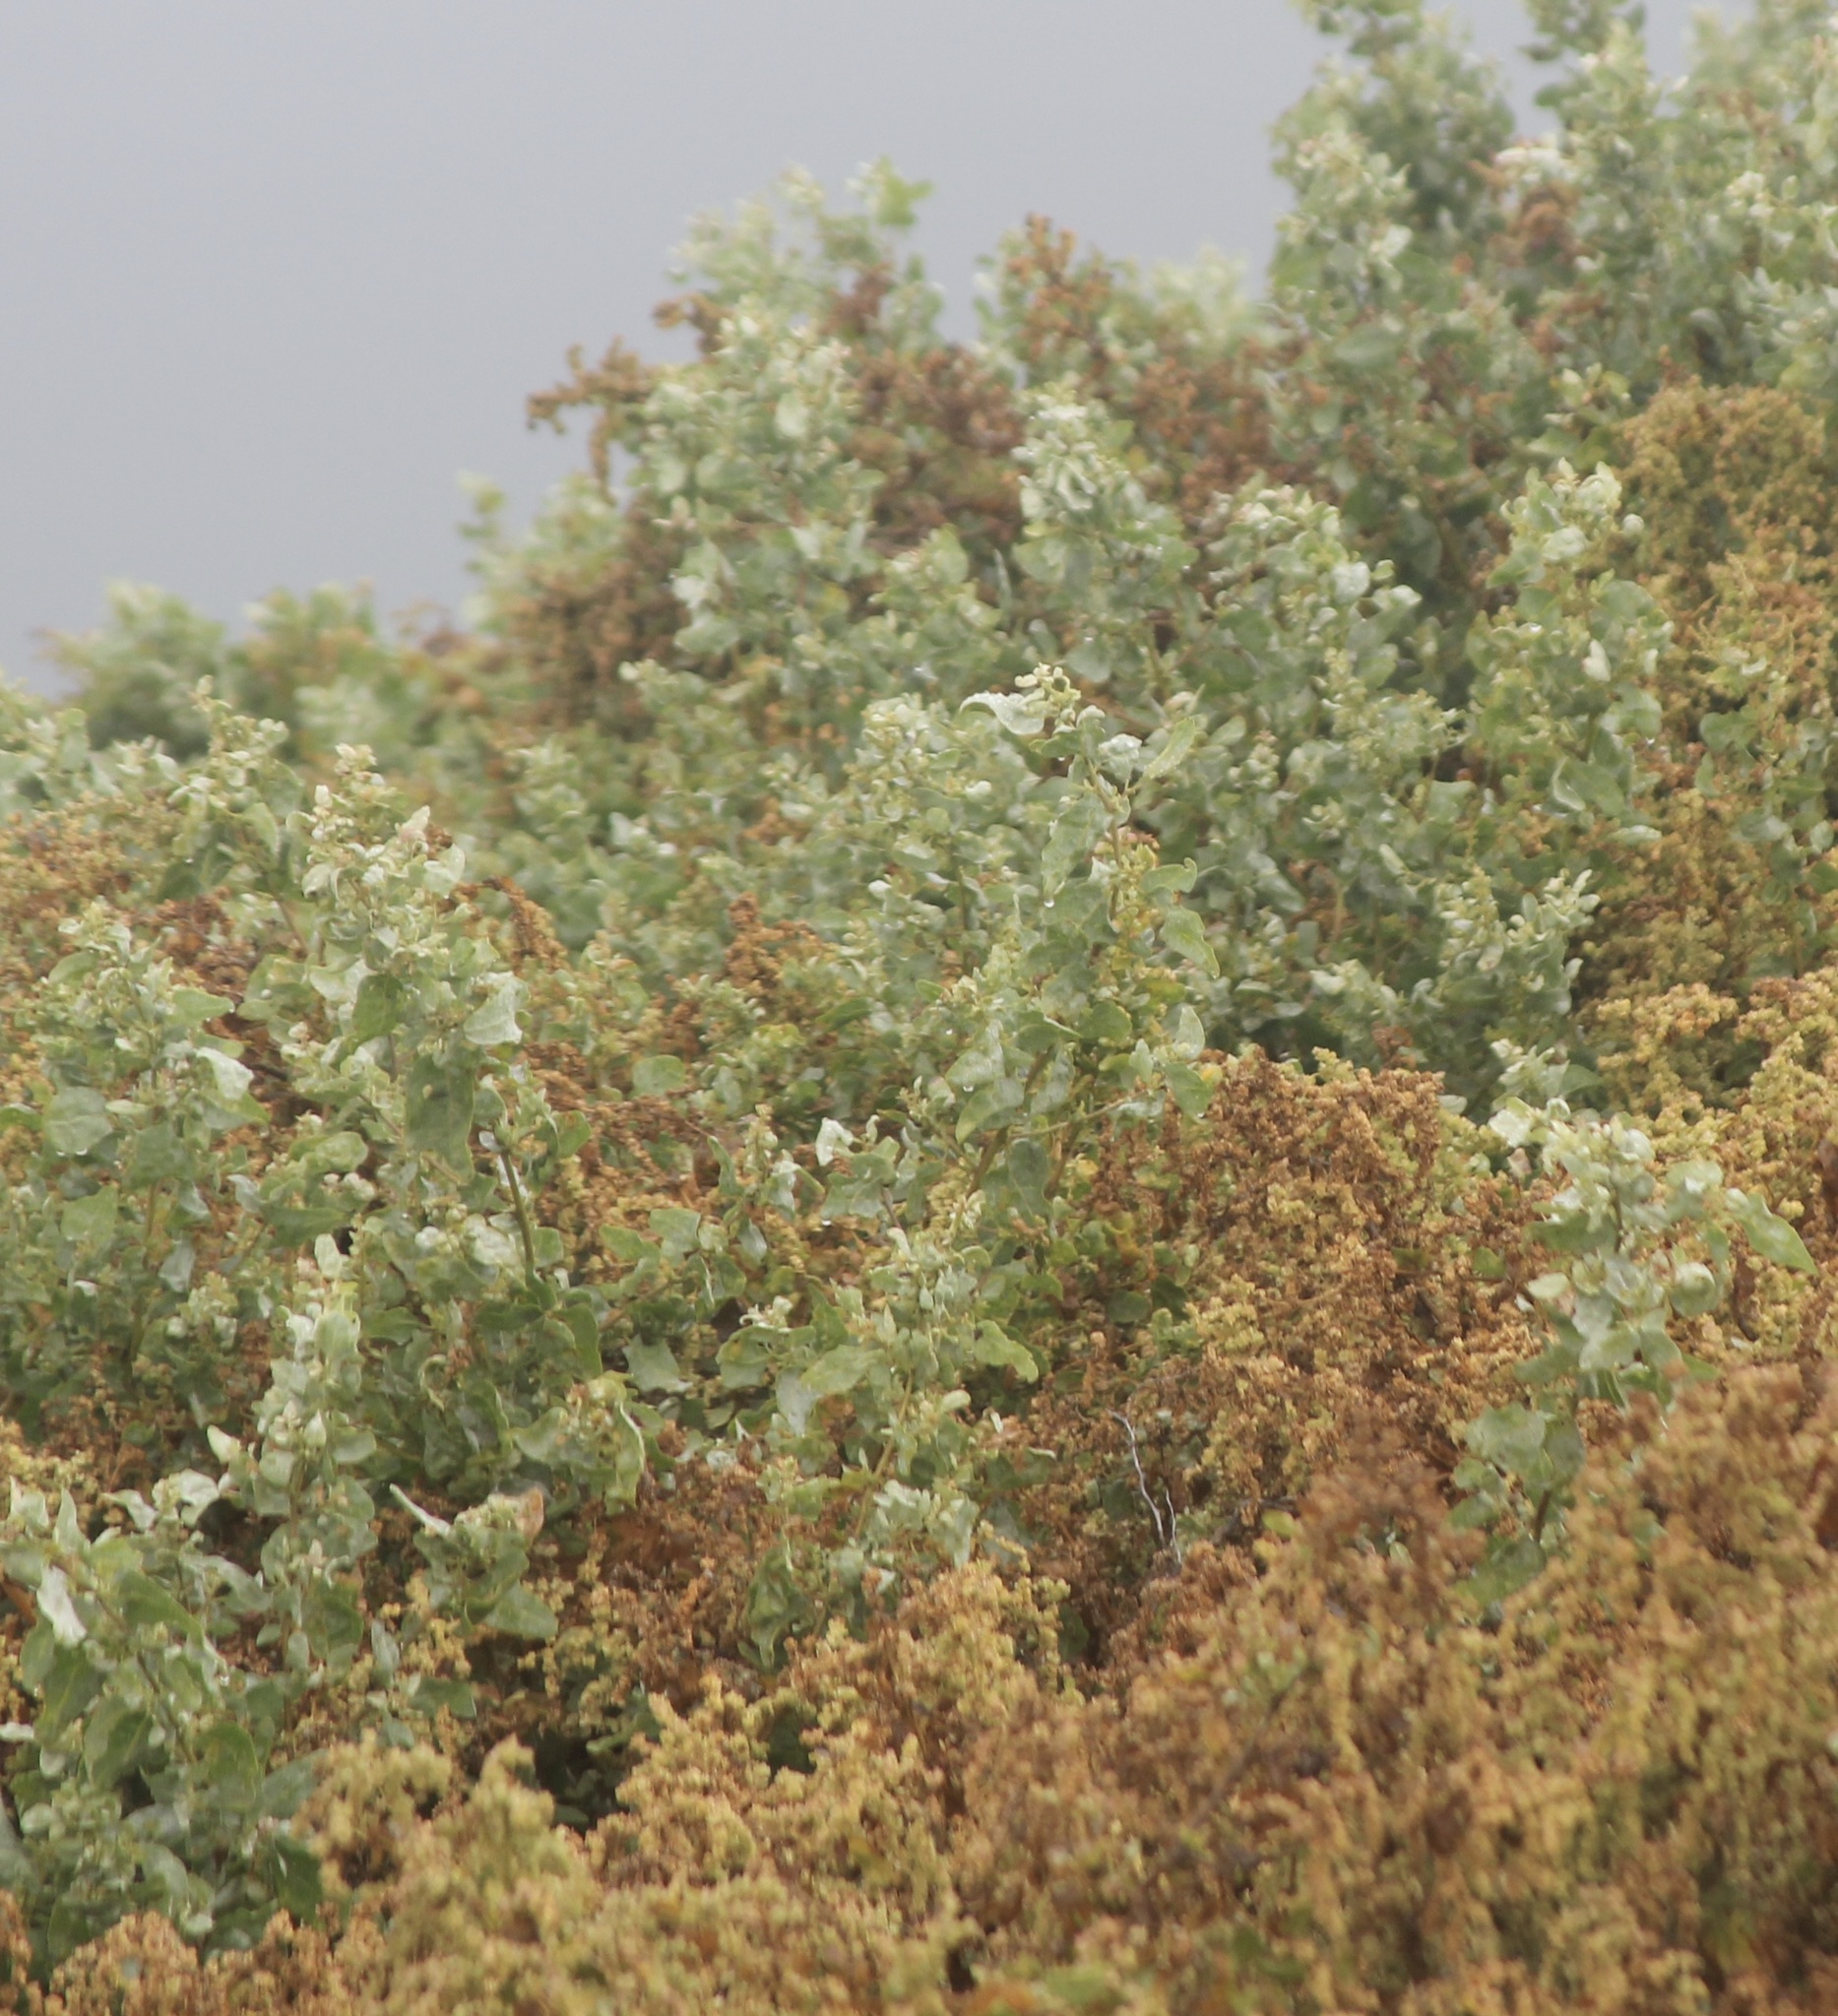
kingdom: Plantae
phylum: Tracheophyta
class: Magnoliopsida
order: Caryophyllales
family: Amaranthaceae
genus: Atriplex
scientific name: Atriplex lentiformis
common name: Big saltbush
